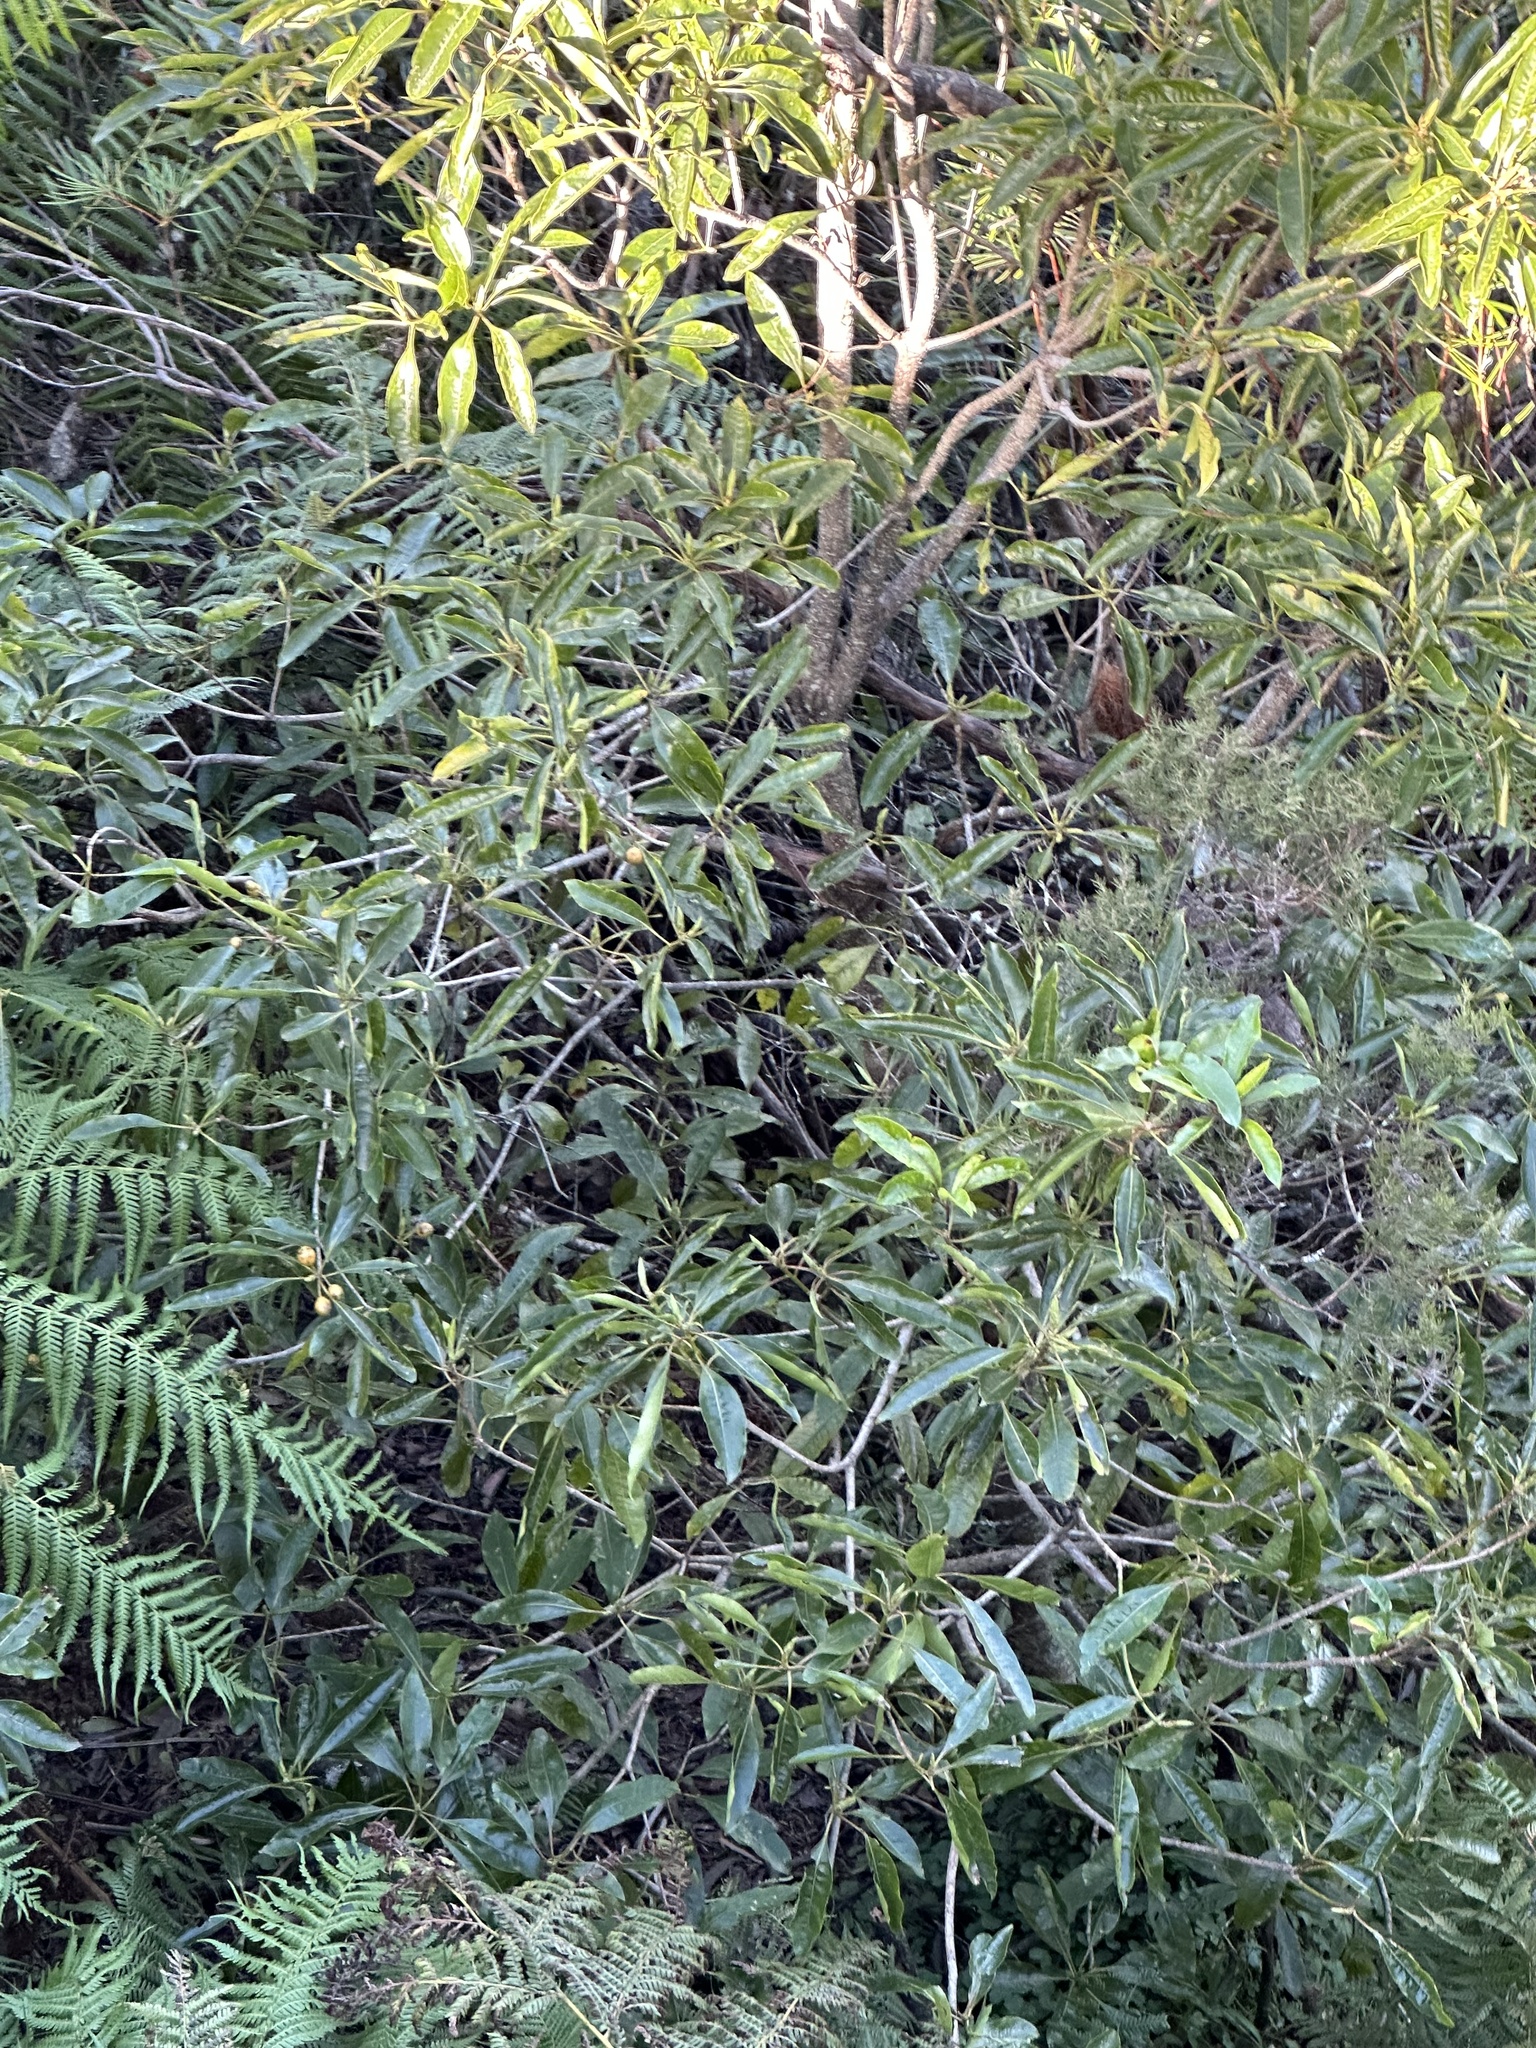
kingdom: Plantae
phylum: Tracheophyta
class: Magnoliopsida
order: Apiales
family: Pittosporaceae
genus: Pittosporum
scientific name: Pittosporum undulatum
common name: Australian cheesewood
